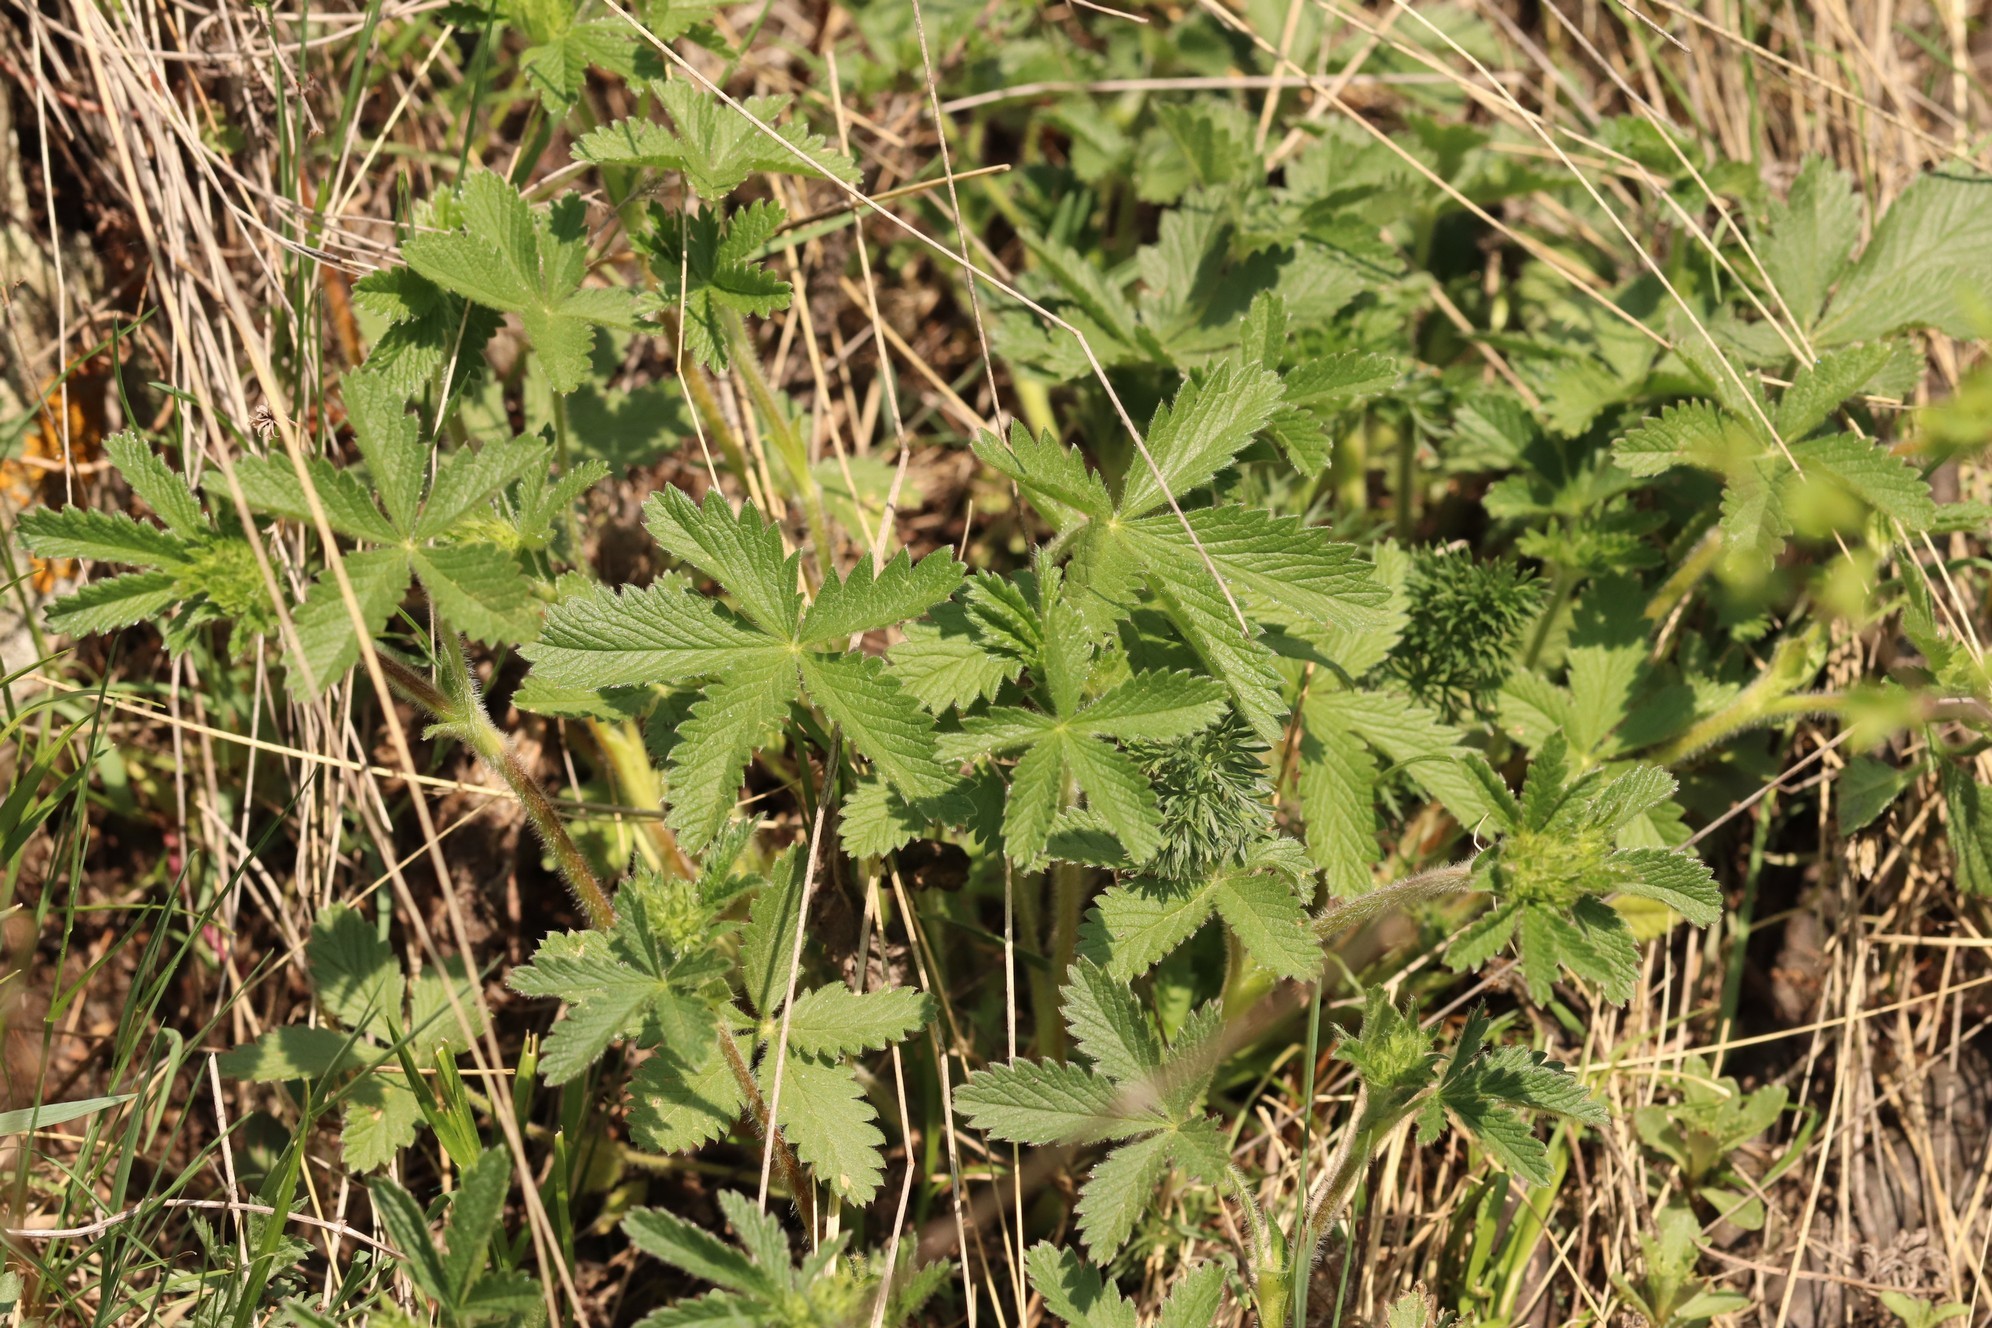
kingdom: Plantae
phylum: Tracheophyta
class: Magnoliopsida
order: Rosales
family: Rosaceae
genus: Potentilla
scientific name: Potentilla chrysantha
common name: Thuringian cinquefoil
